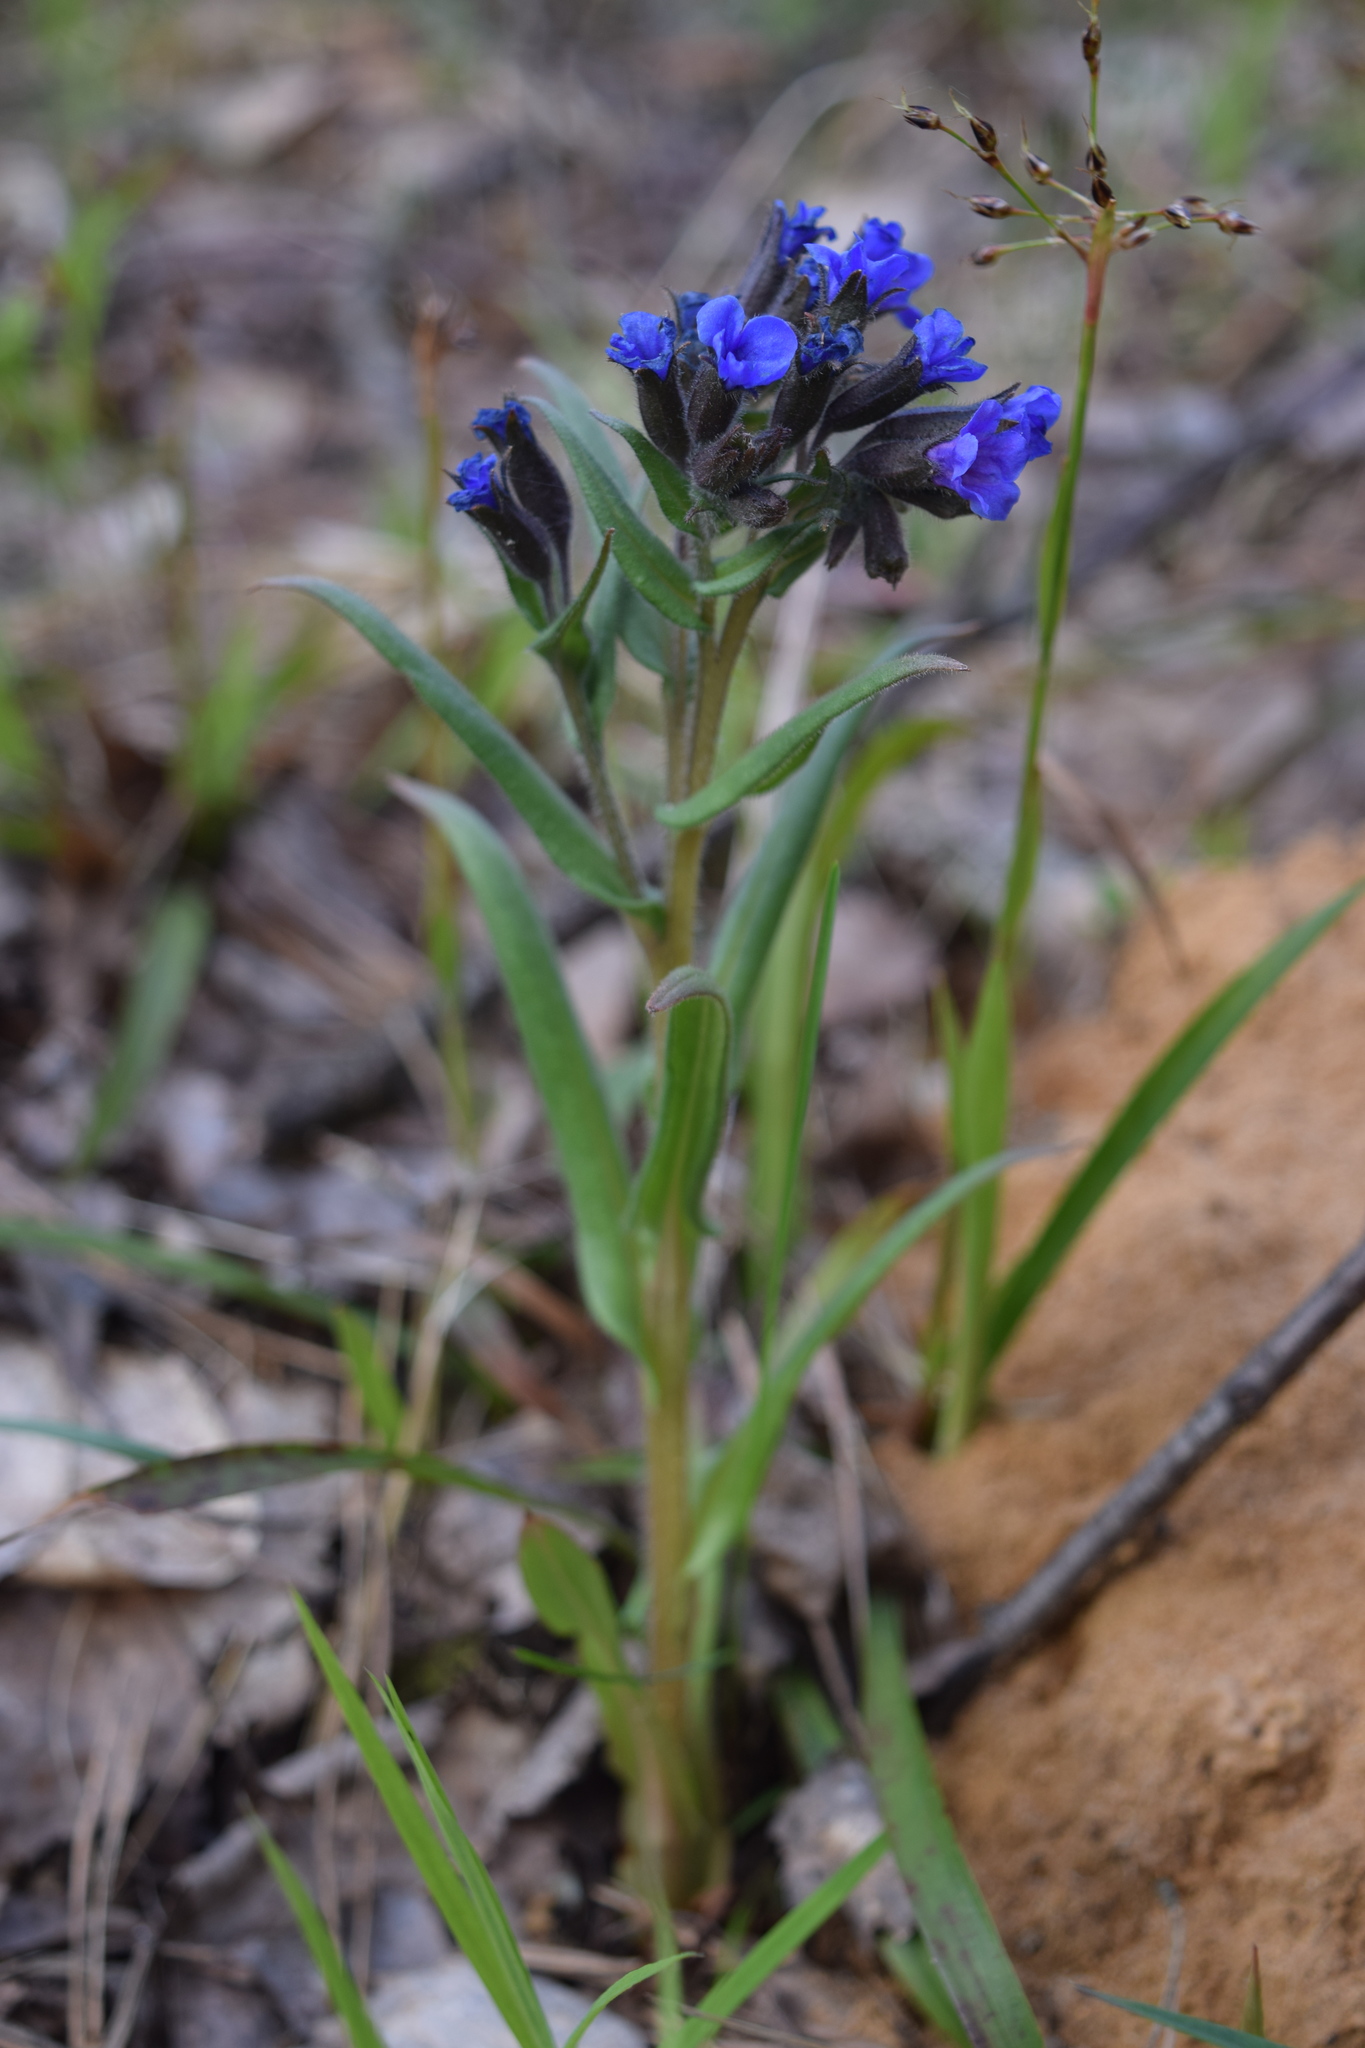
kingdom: Plantae
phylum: Tracheophyta
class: Magnoliopsida
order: Boraginales
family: Boraginaceae
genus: Pulmonaria
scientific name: Pulmonaria angustifolia
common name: Blue cowslip
